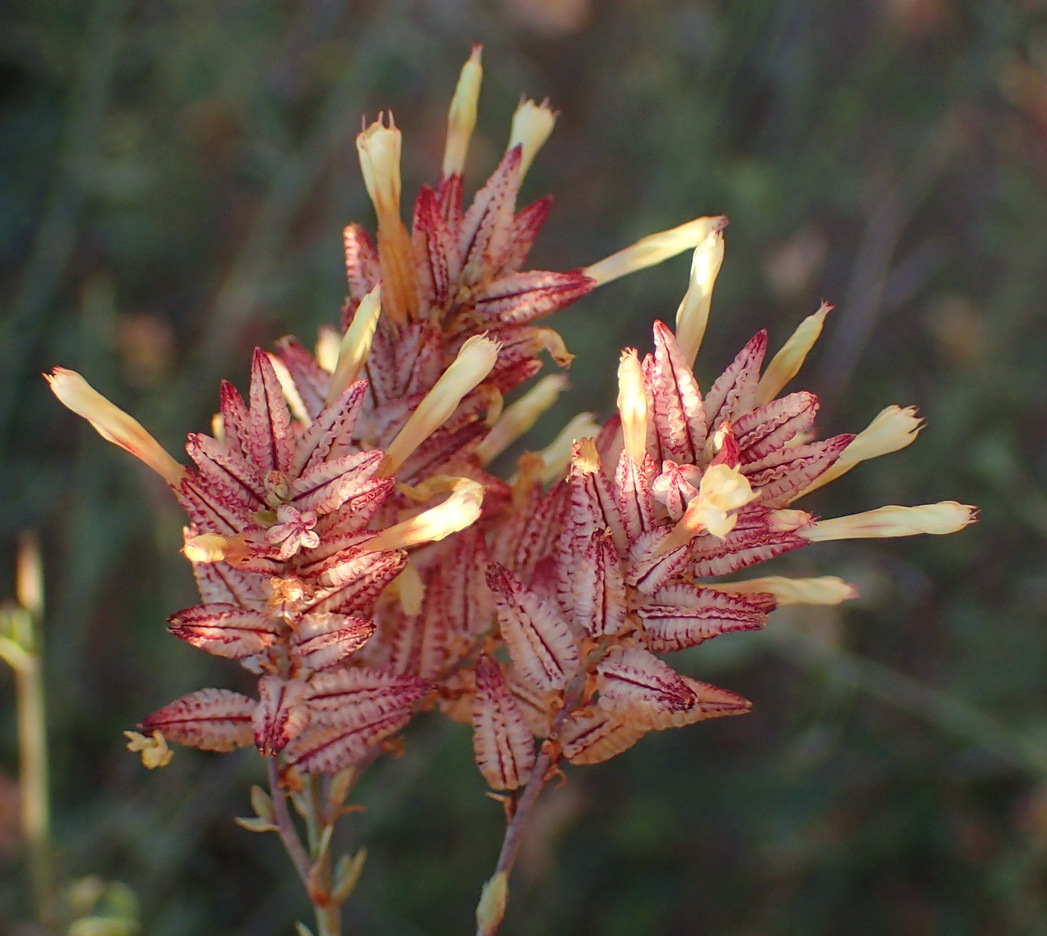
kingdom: Plantae
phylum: Tracheophyta
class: Magnoliopsida
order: Caryophyllales
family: Plumbaginaceae
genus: Dyerophytum
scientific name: Dyerophytum africanum
